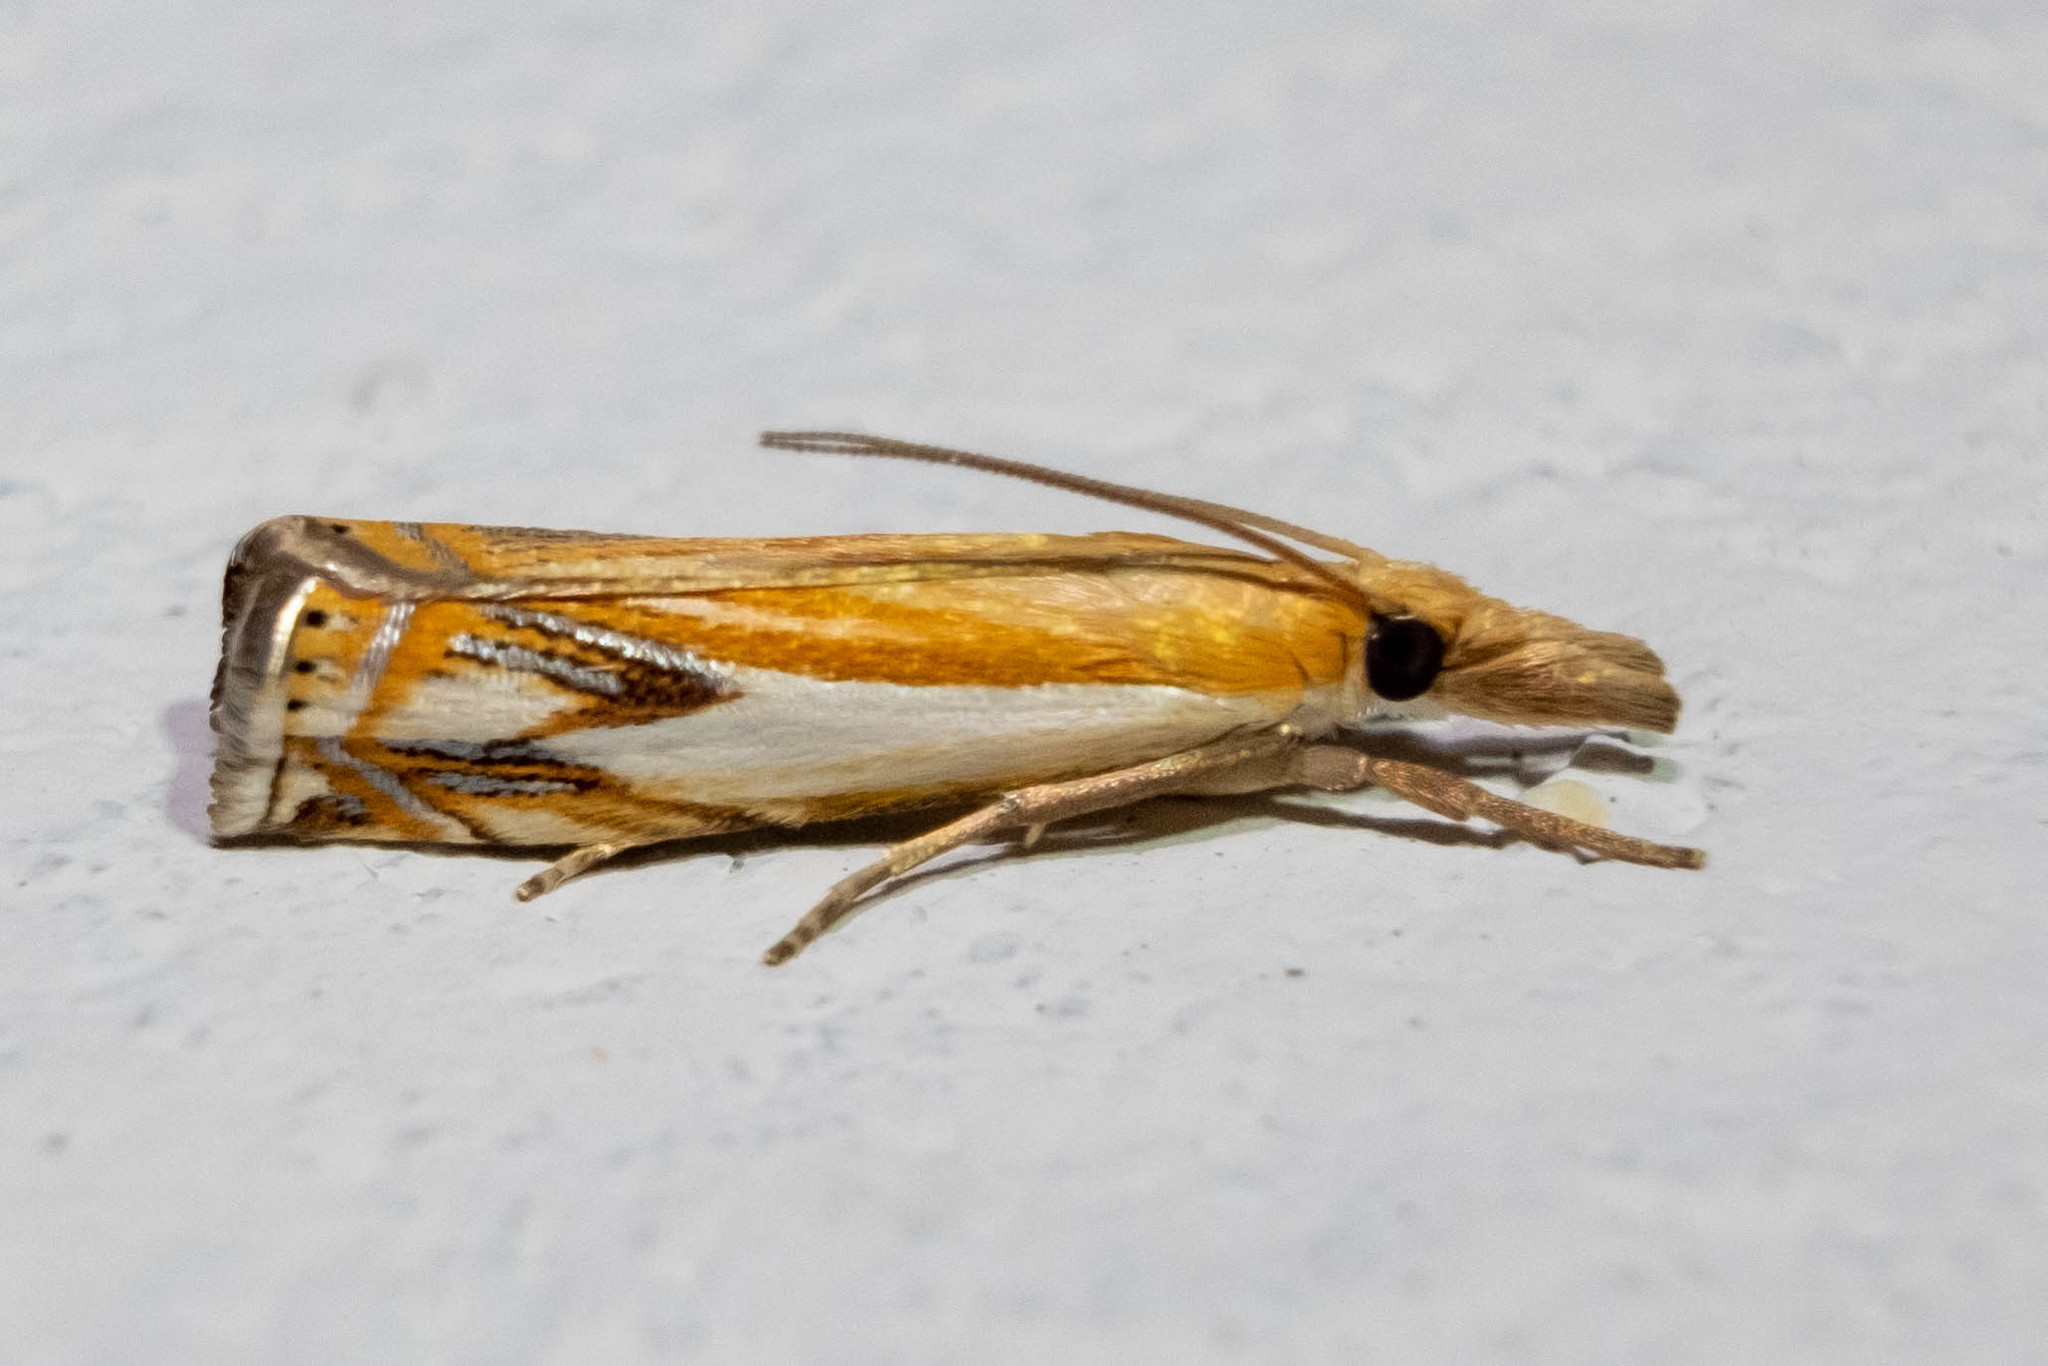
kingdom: Animalia
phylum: Arthropoda
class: Insecta
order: Lepidoptera
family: Crambidae
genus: Crambus
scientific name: Crambus agitatellus
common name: Double-banded grass-veneer
